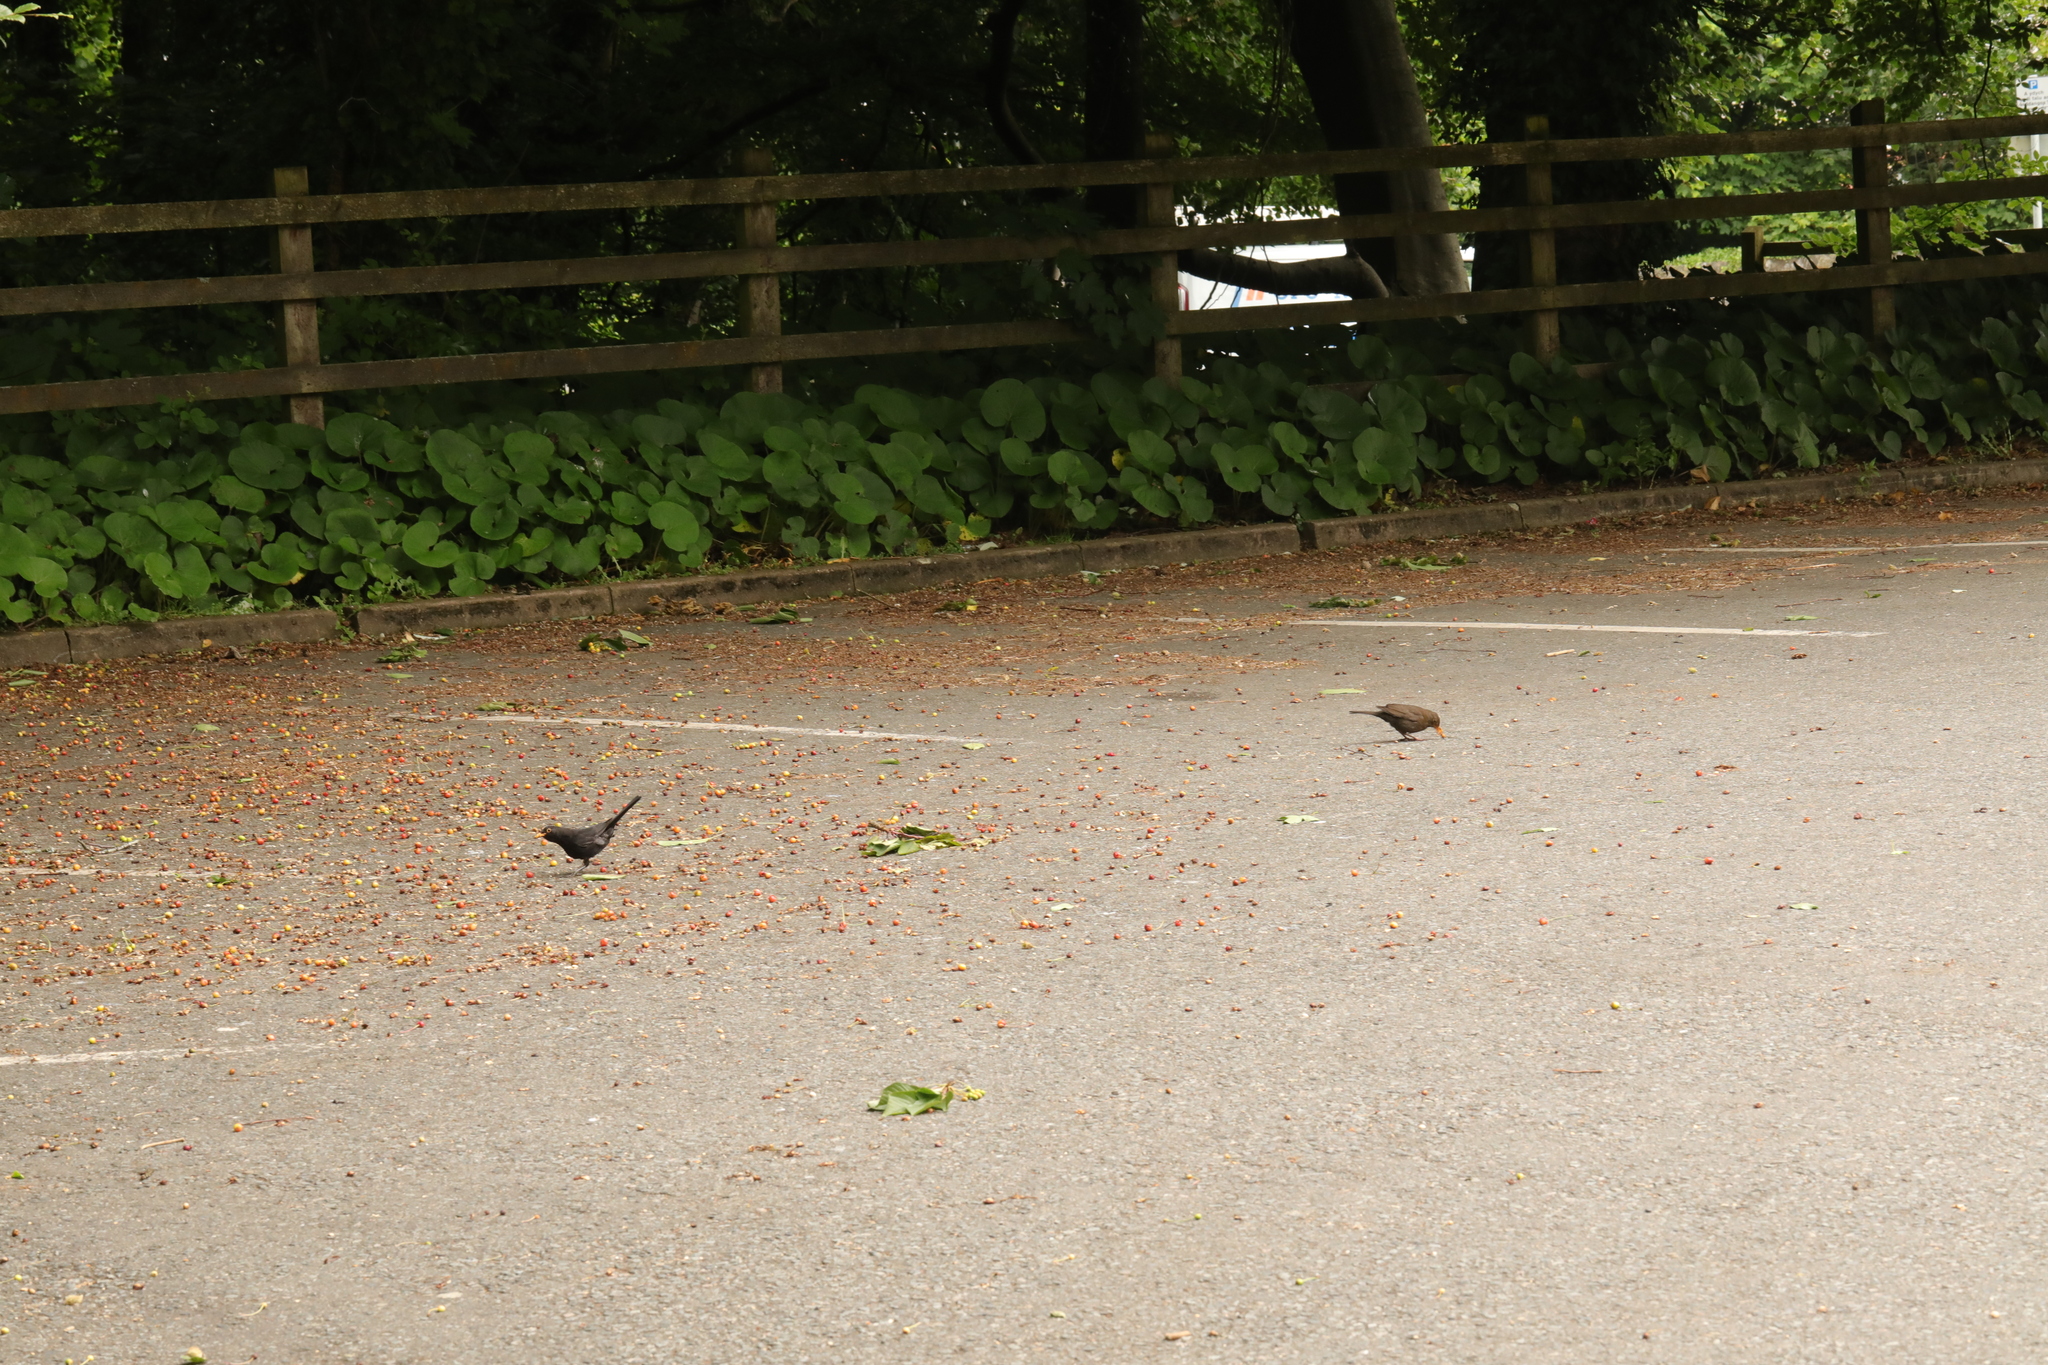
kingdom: Animalia
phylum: Chordata
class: Aves
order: Passeriformes
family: Turdidae
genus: Turdus
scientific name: Turdus merula
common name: Common blackbird
